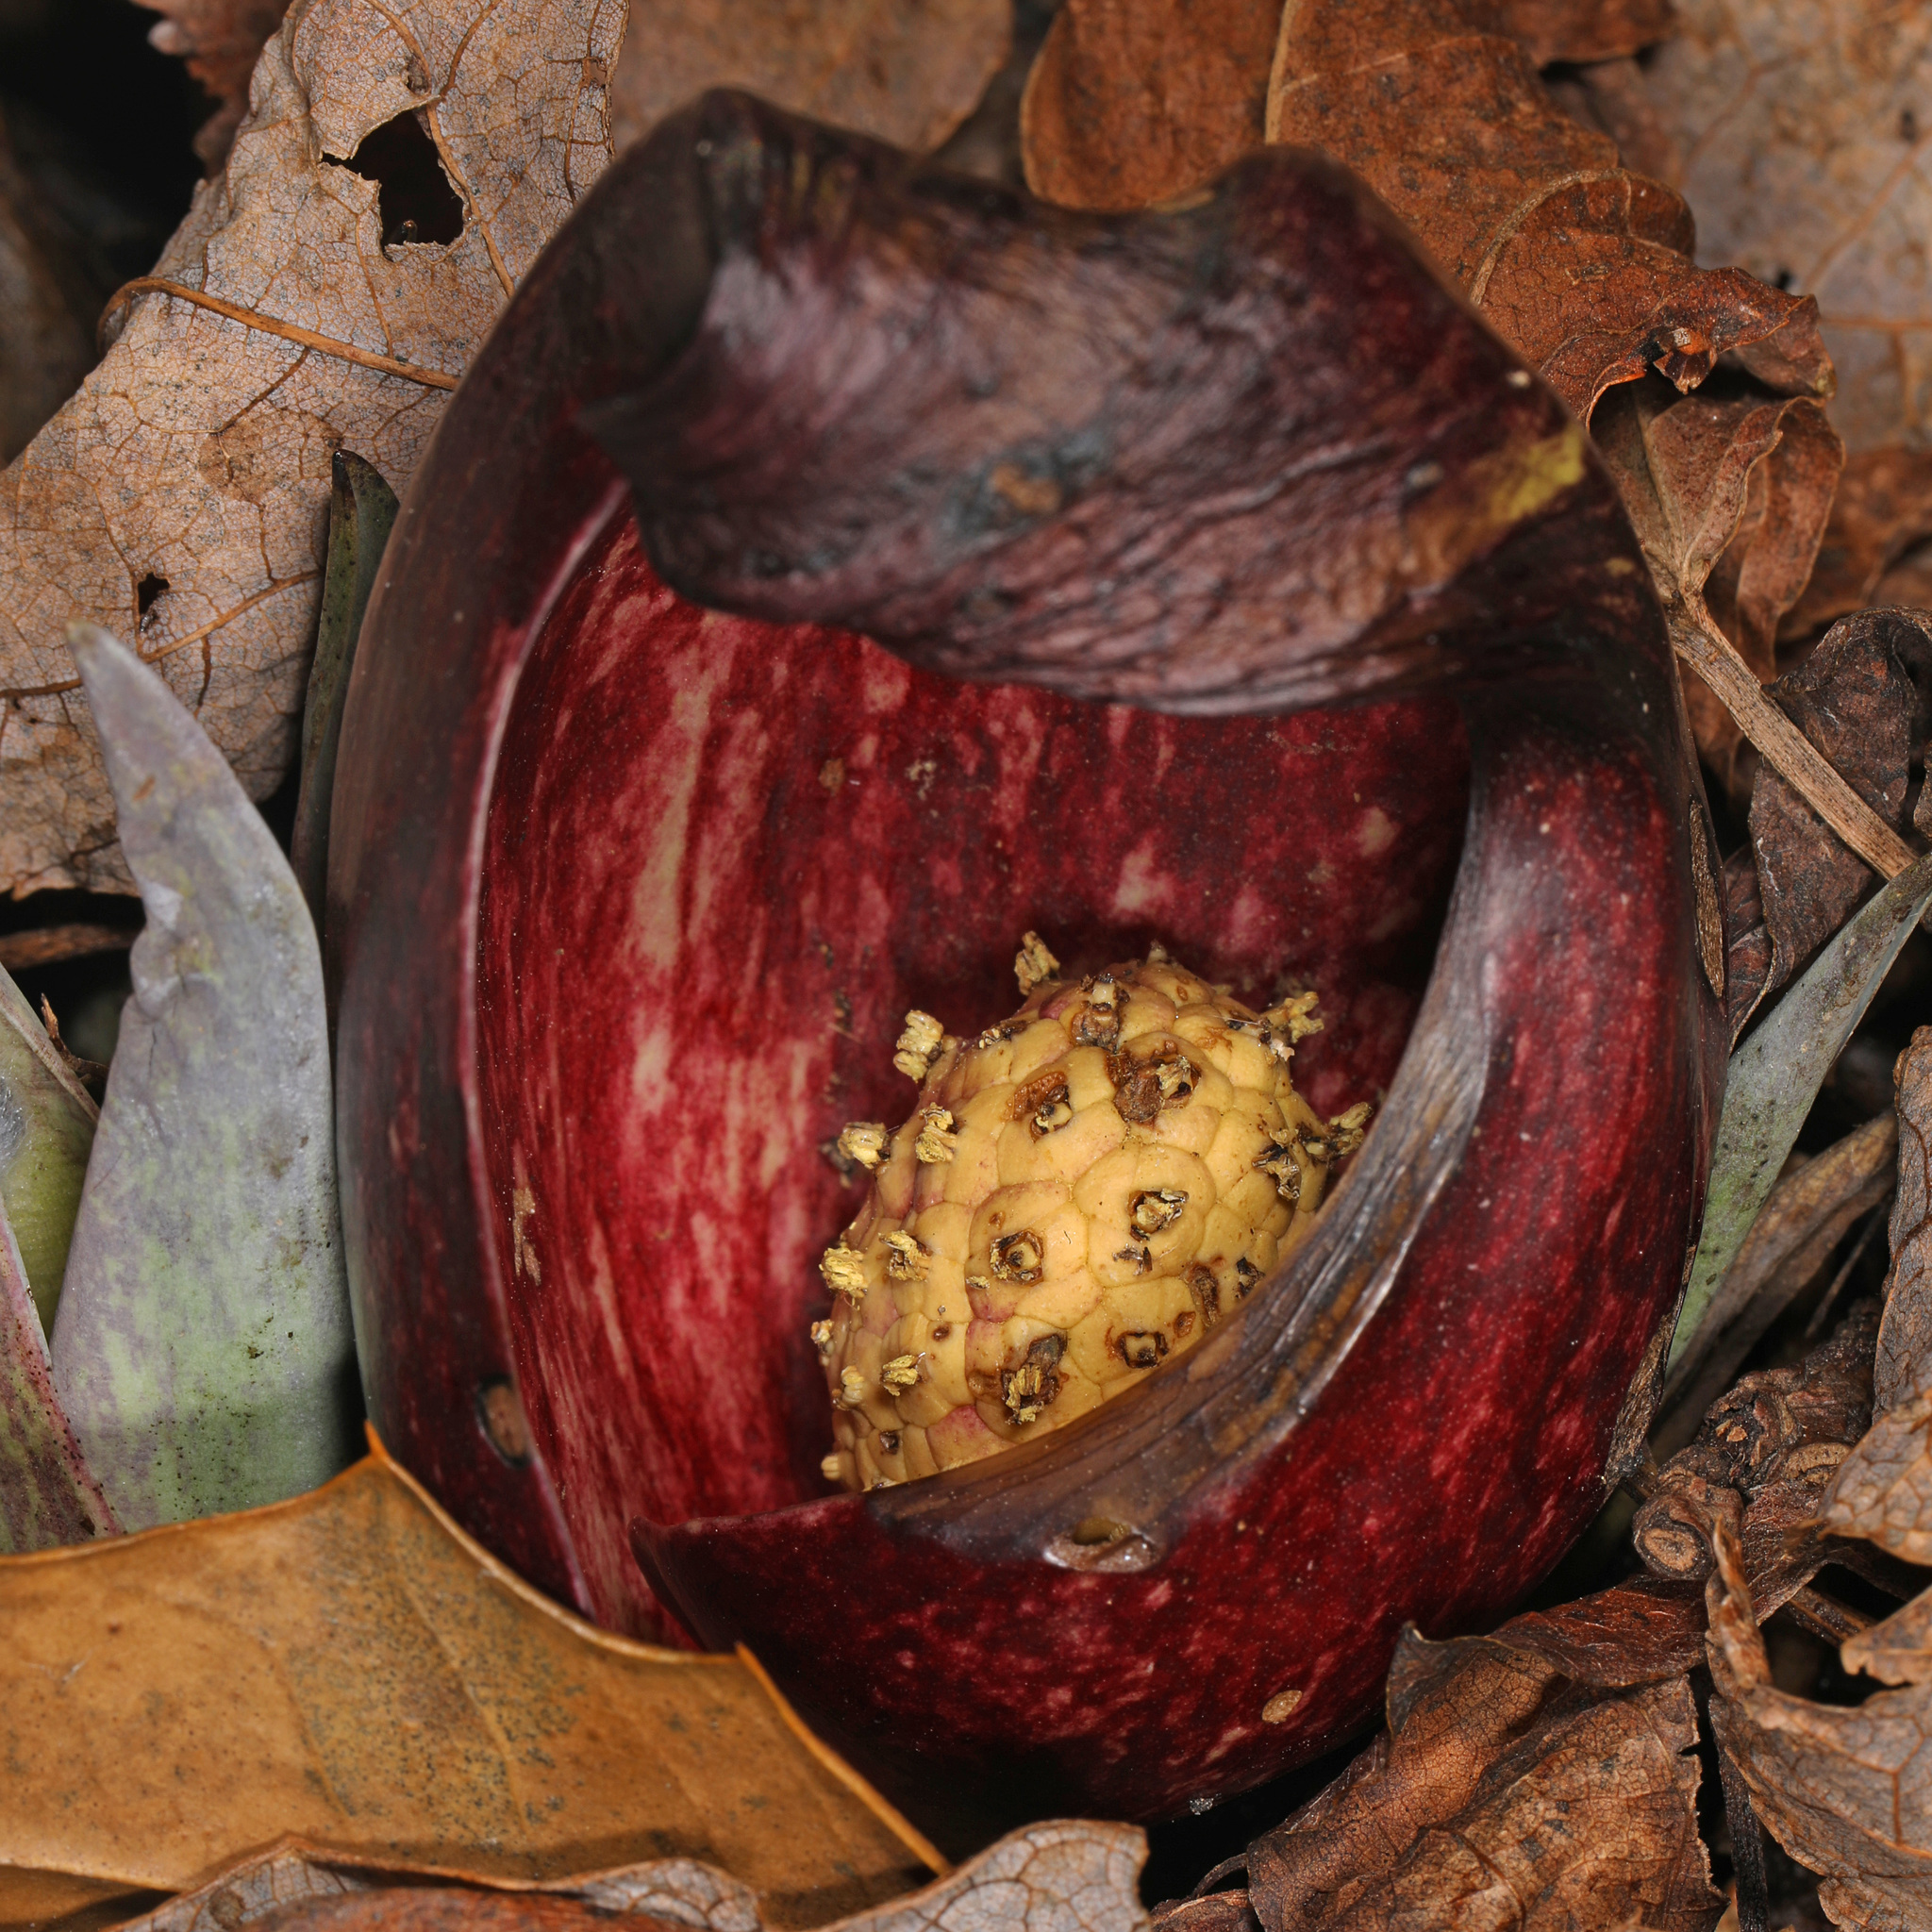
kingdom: Plantae
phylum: Tracheophyta
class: Liliopsida
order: Alismatales
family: Araceae
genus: Symplocarpus
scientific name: Symplocarpus foetidus
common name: Eastern skunk cabbage
